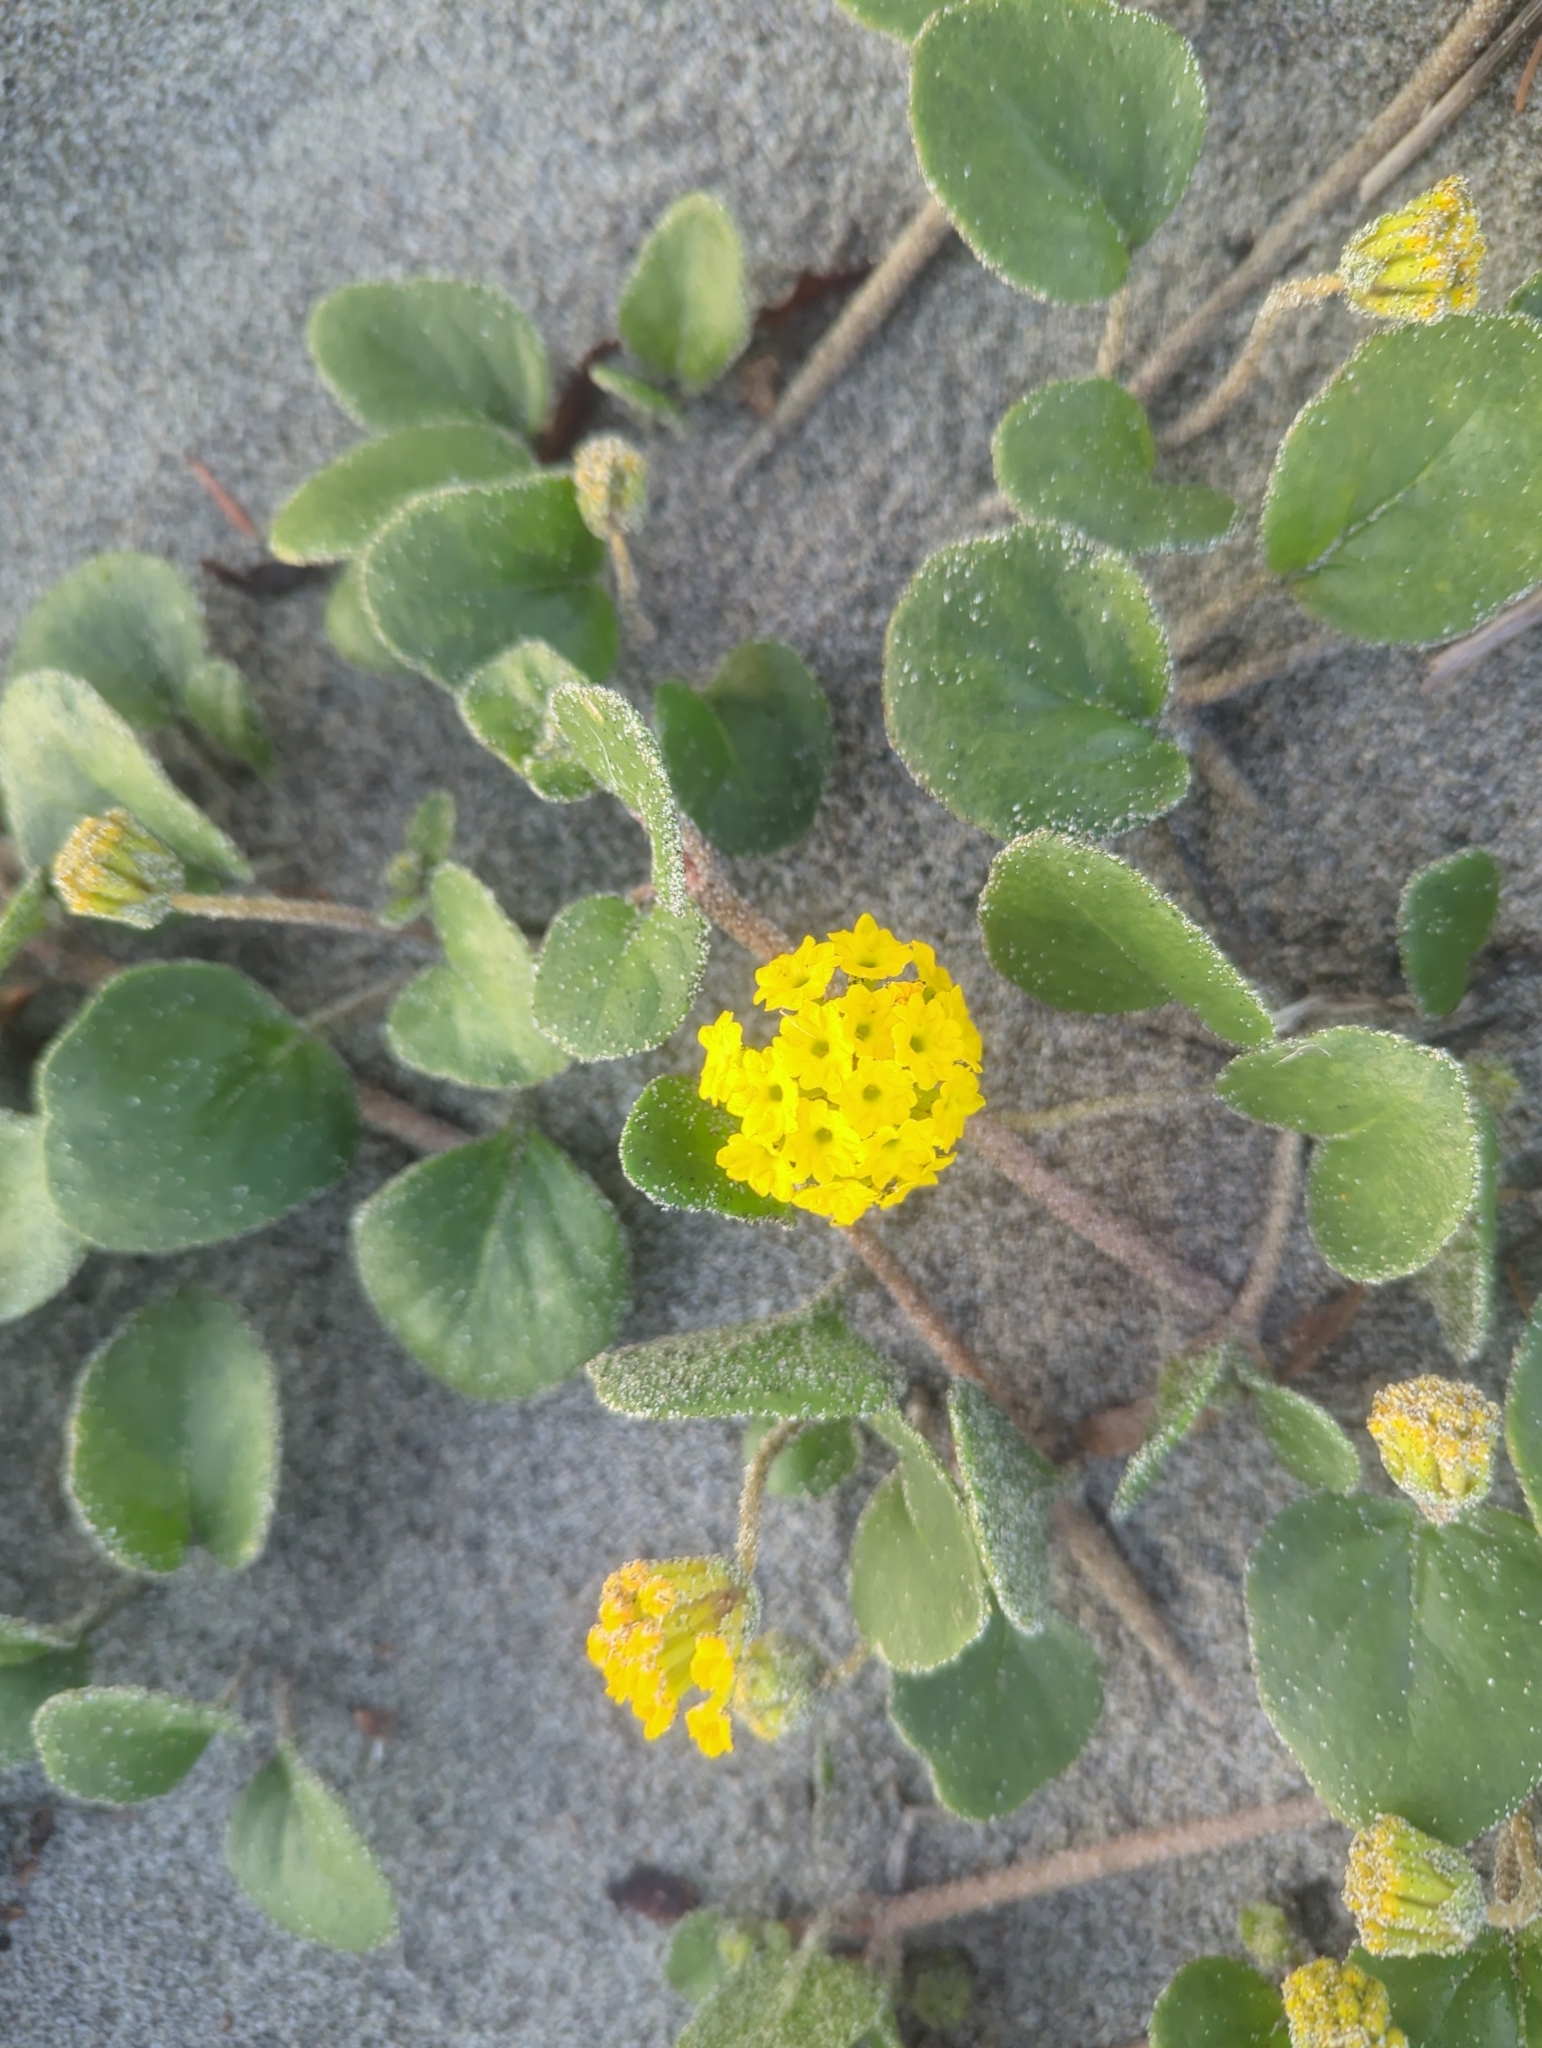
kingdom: Plantae
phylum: Tracheophyta
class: Magnoliopsida
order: Caryophyllales
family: Nyctaginaceae
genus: Abronia
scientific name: Abronia latifolia
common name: Yellow sand-verbena
